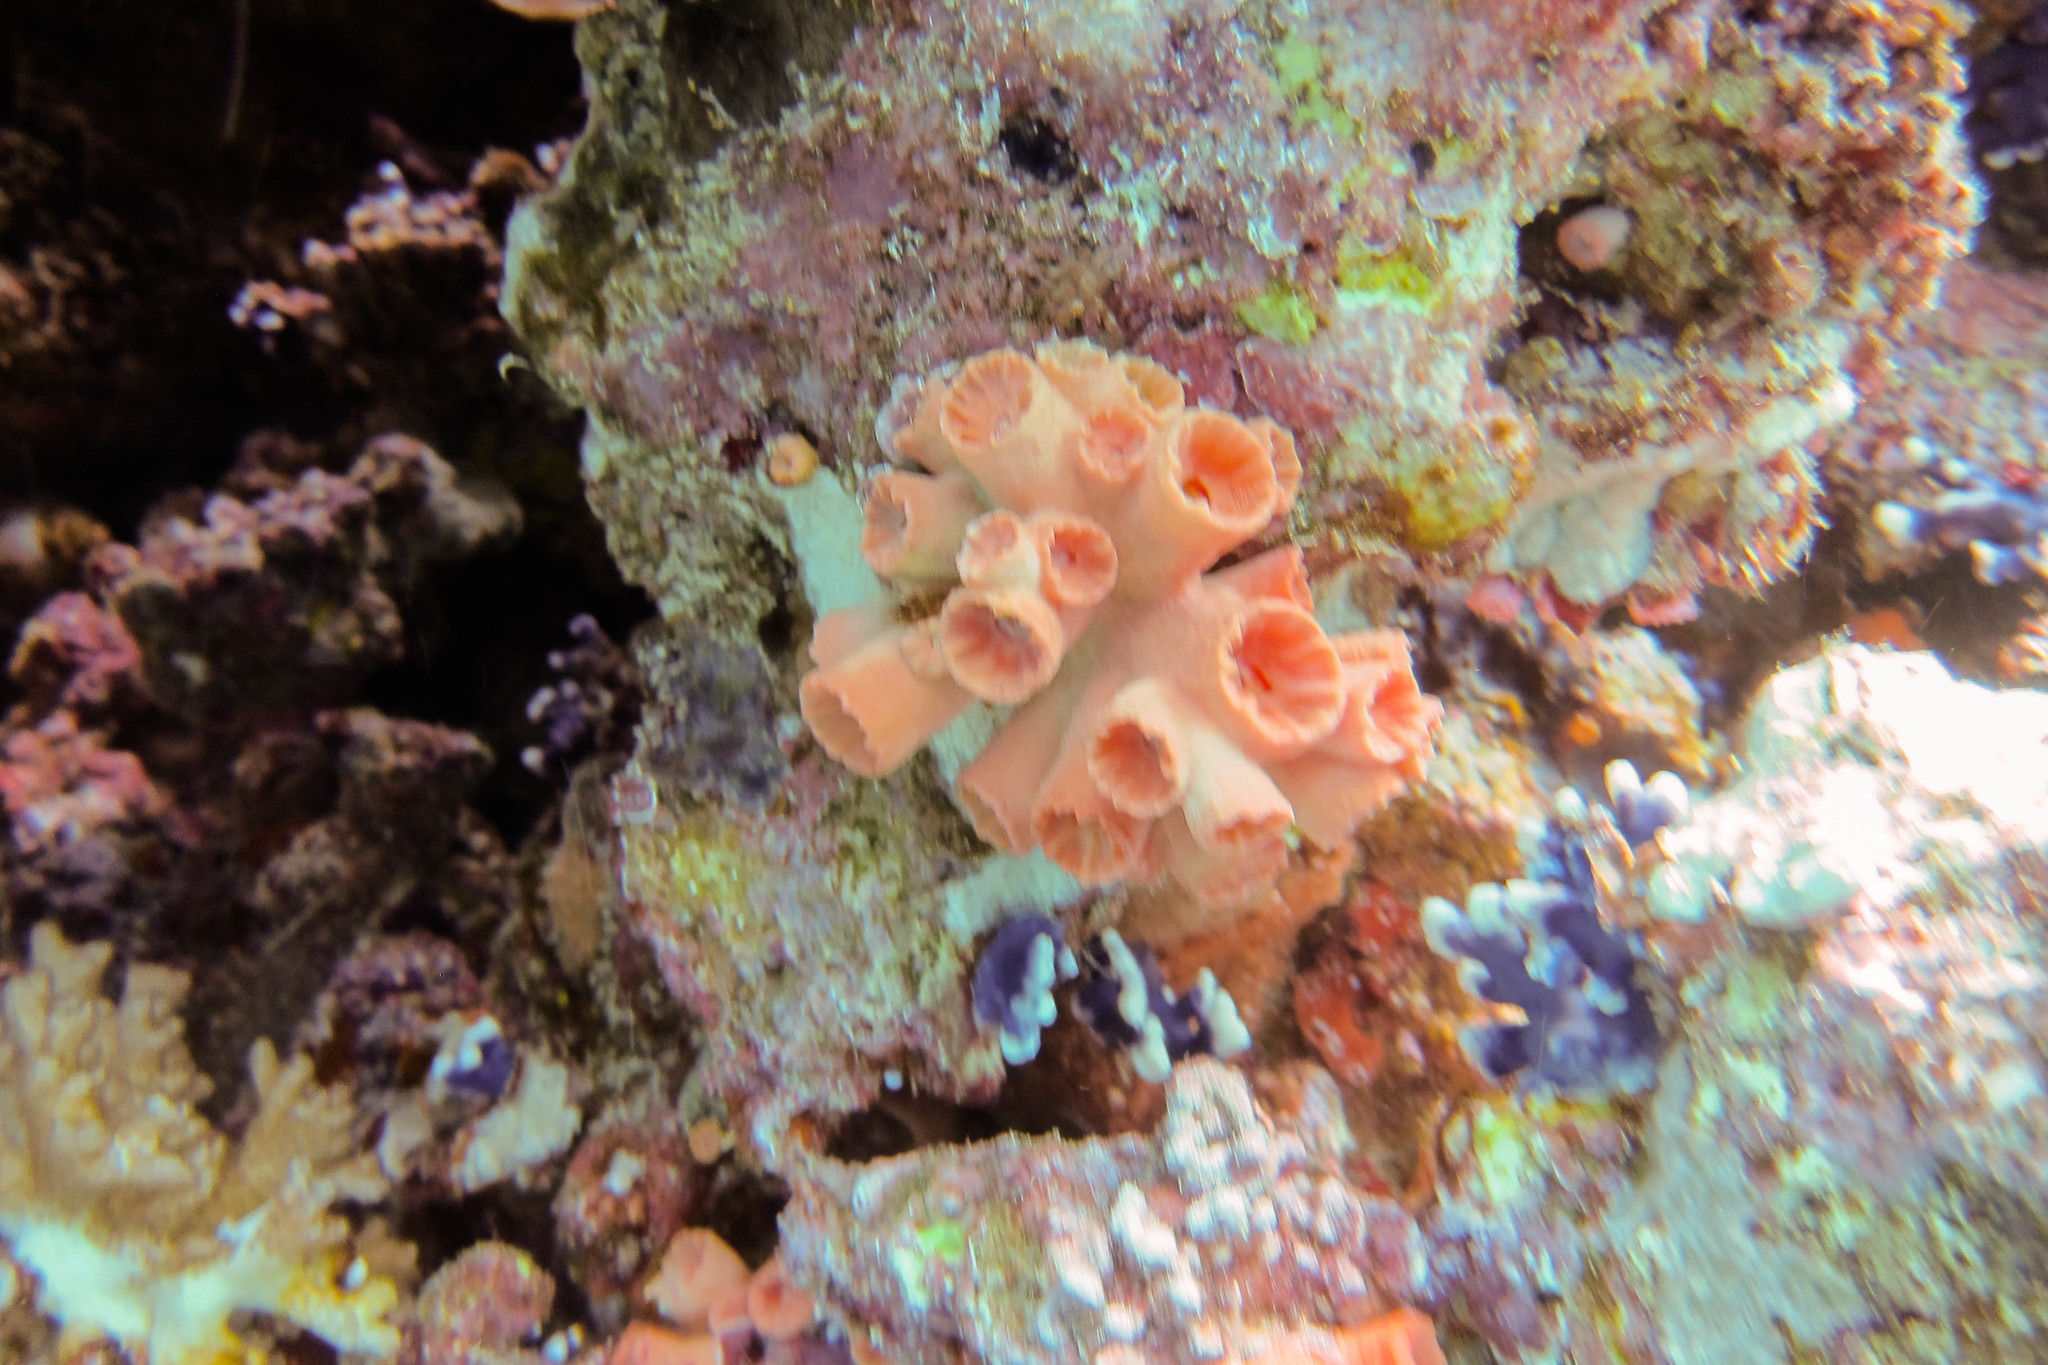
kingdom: Animalia
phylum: Cnidaria
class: Anthozoa
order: Scleractinia
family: Dendrophylliidae
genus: Dendrophyllia
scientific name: Dendrophyllia
